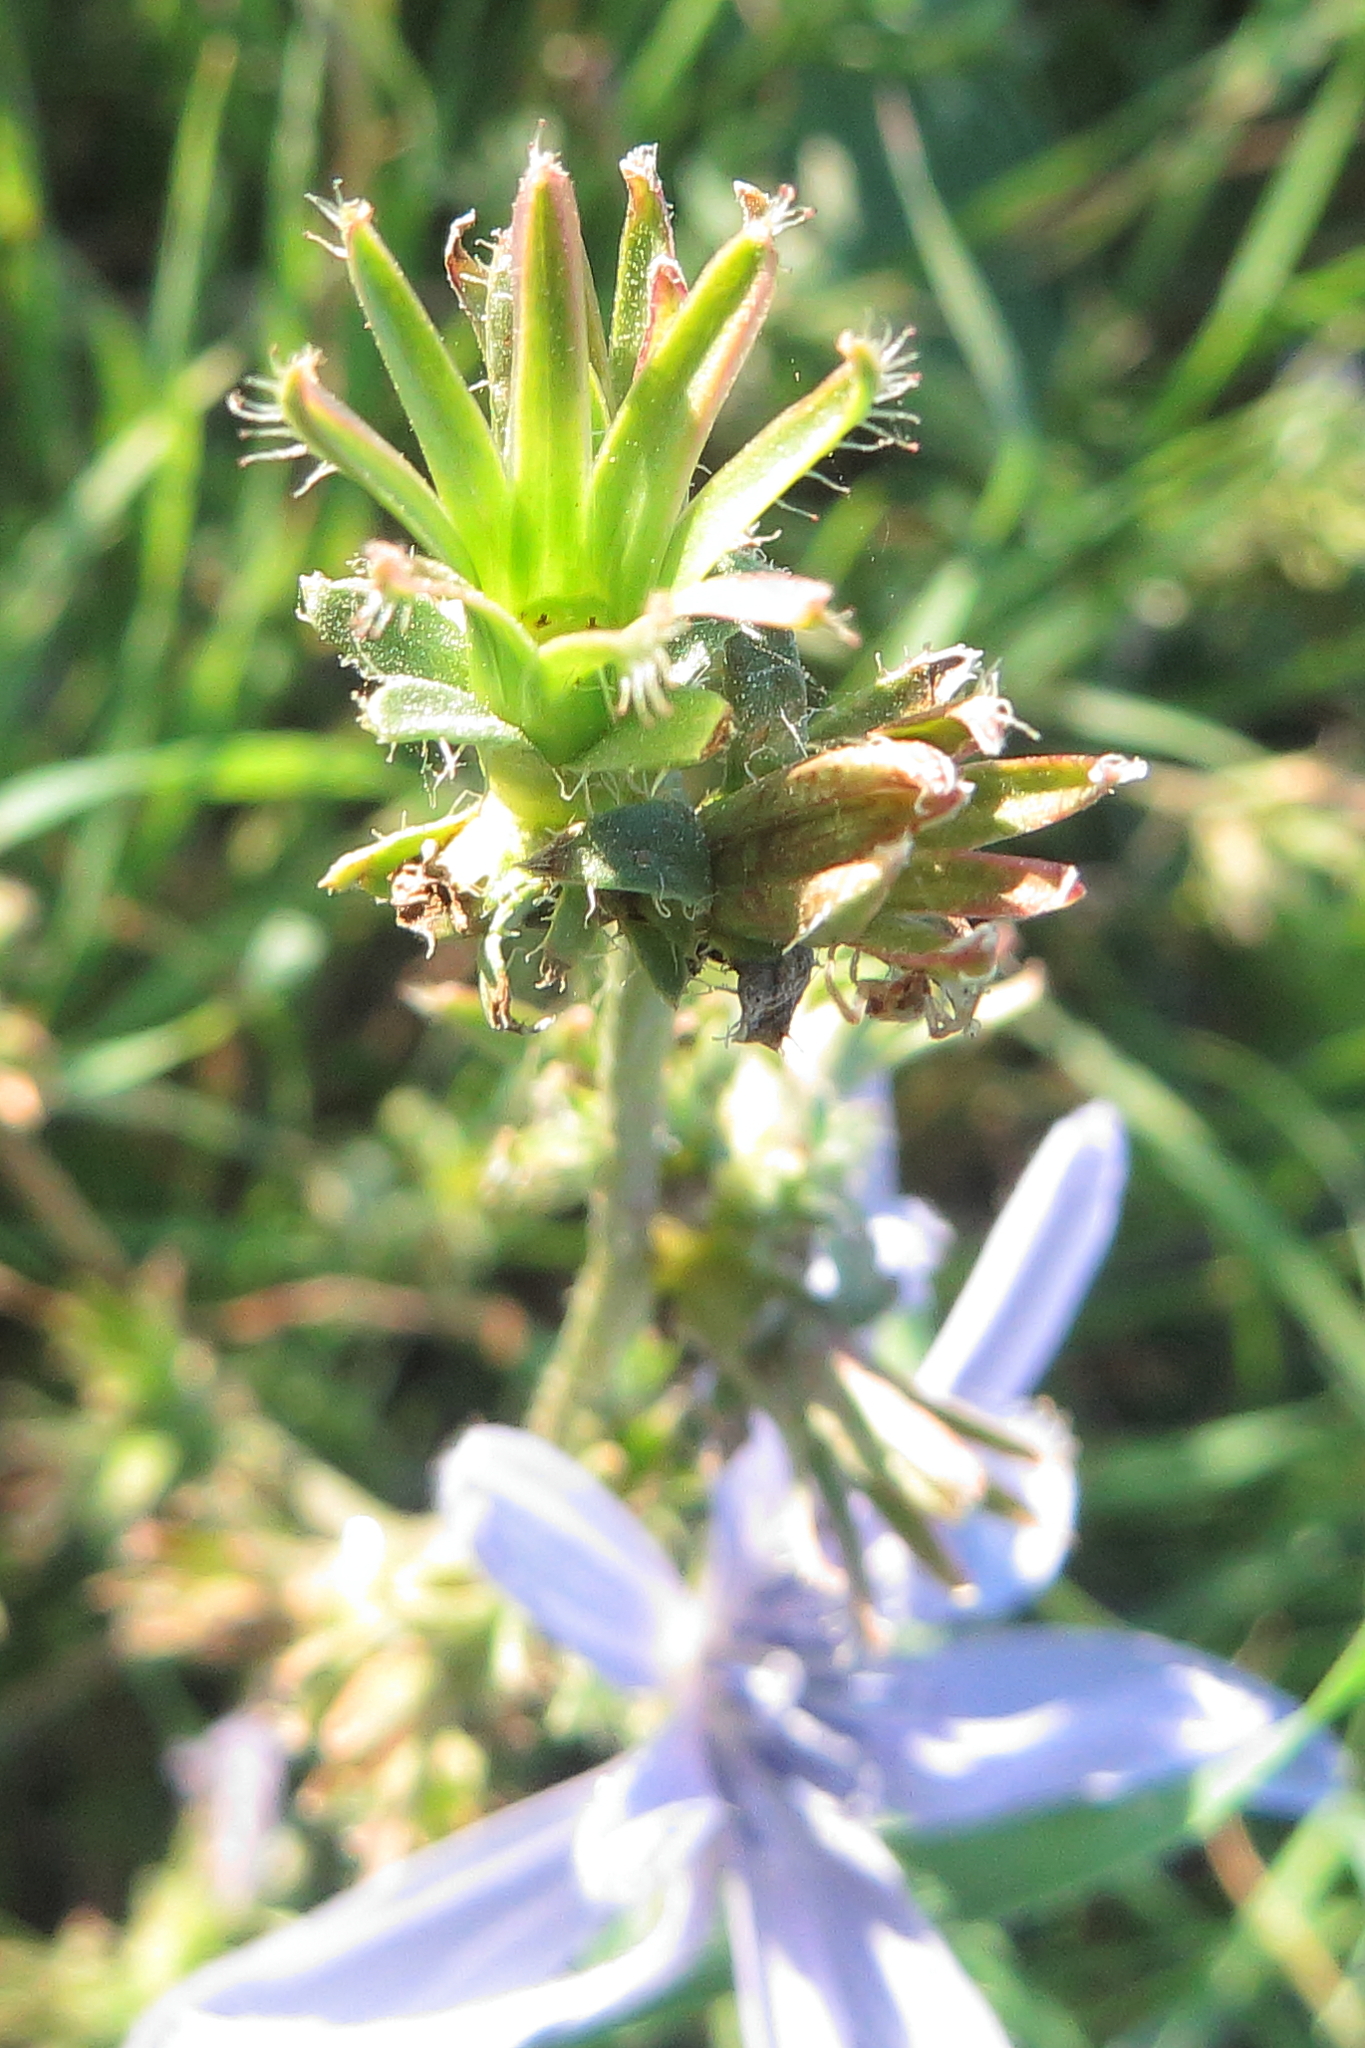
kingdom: Plantae
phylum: Tracheophyta
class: Magnoliopsida
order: Asterales
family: Asteraceae
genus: Cichorium
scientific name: Cichorium intybus
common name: Chicory
